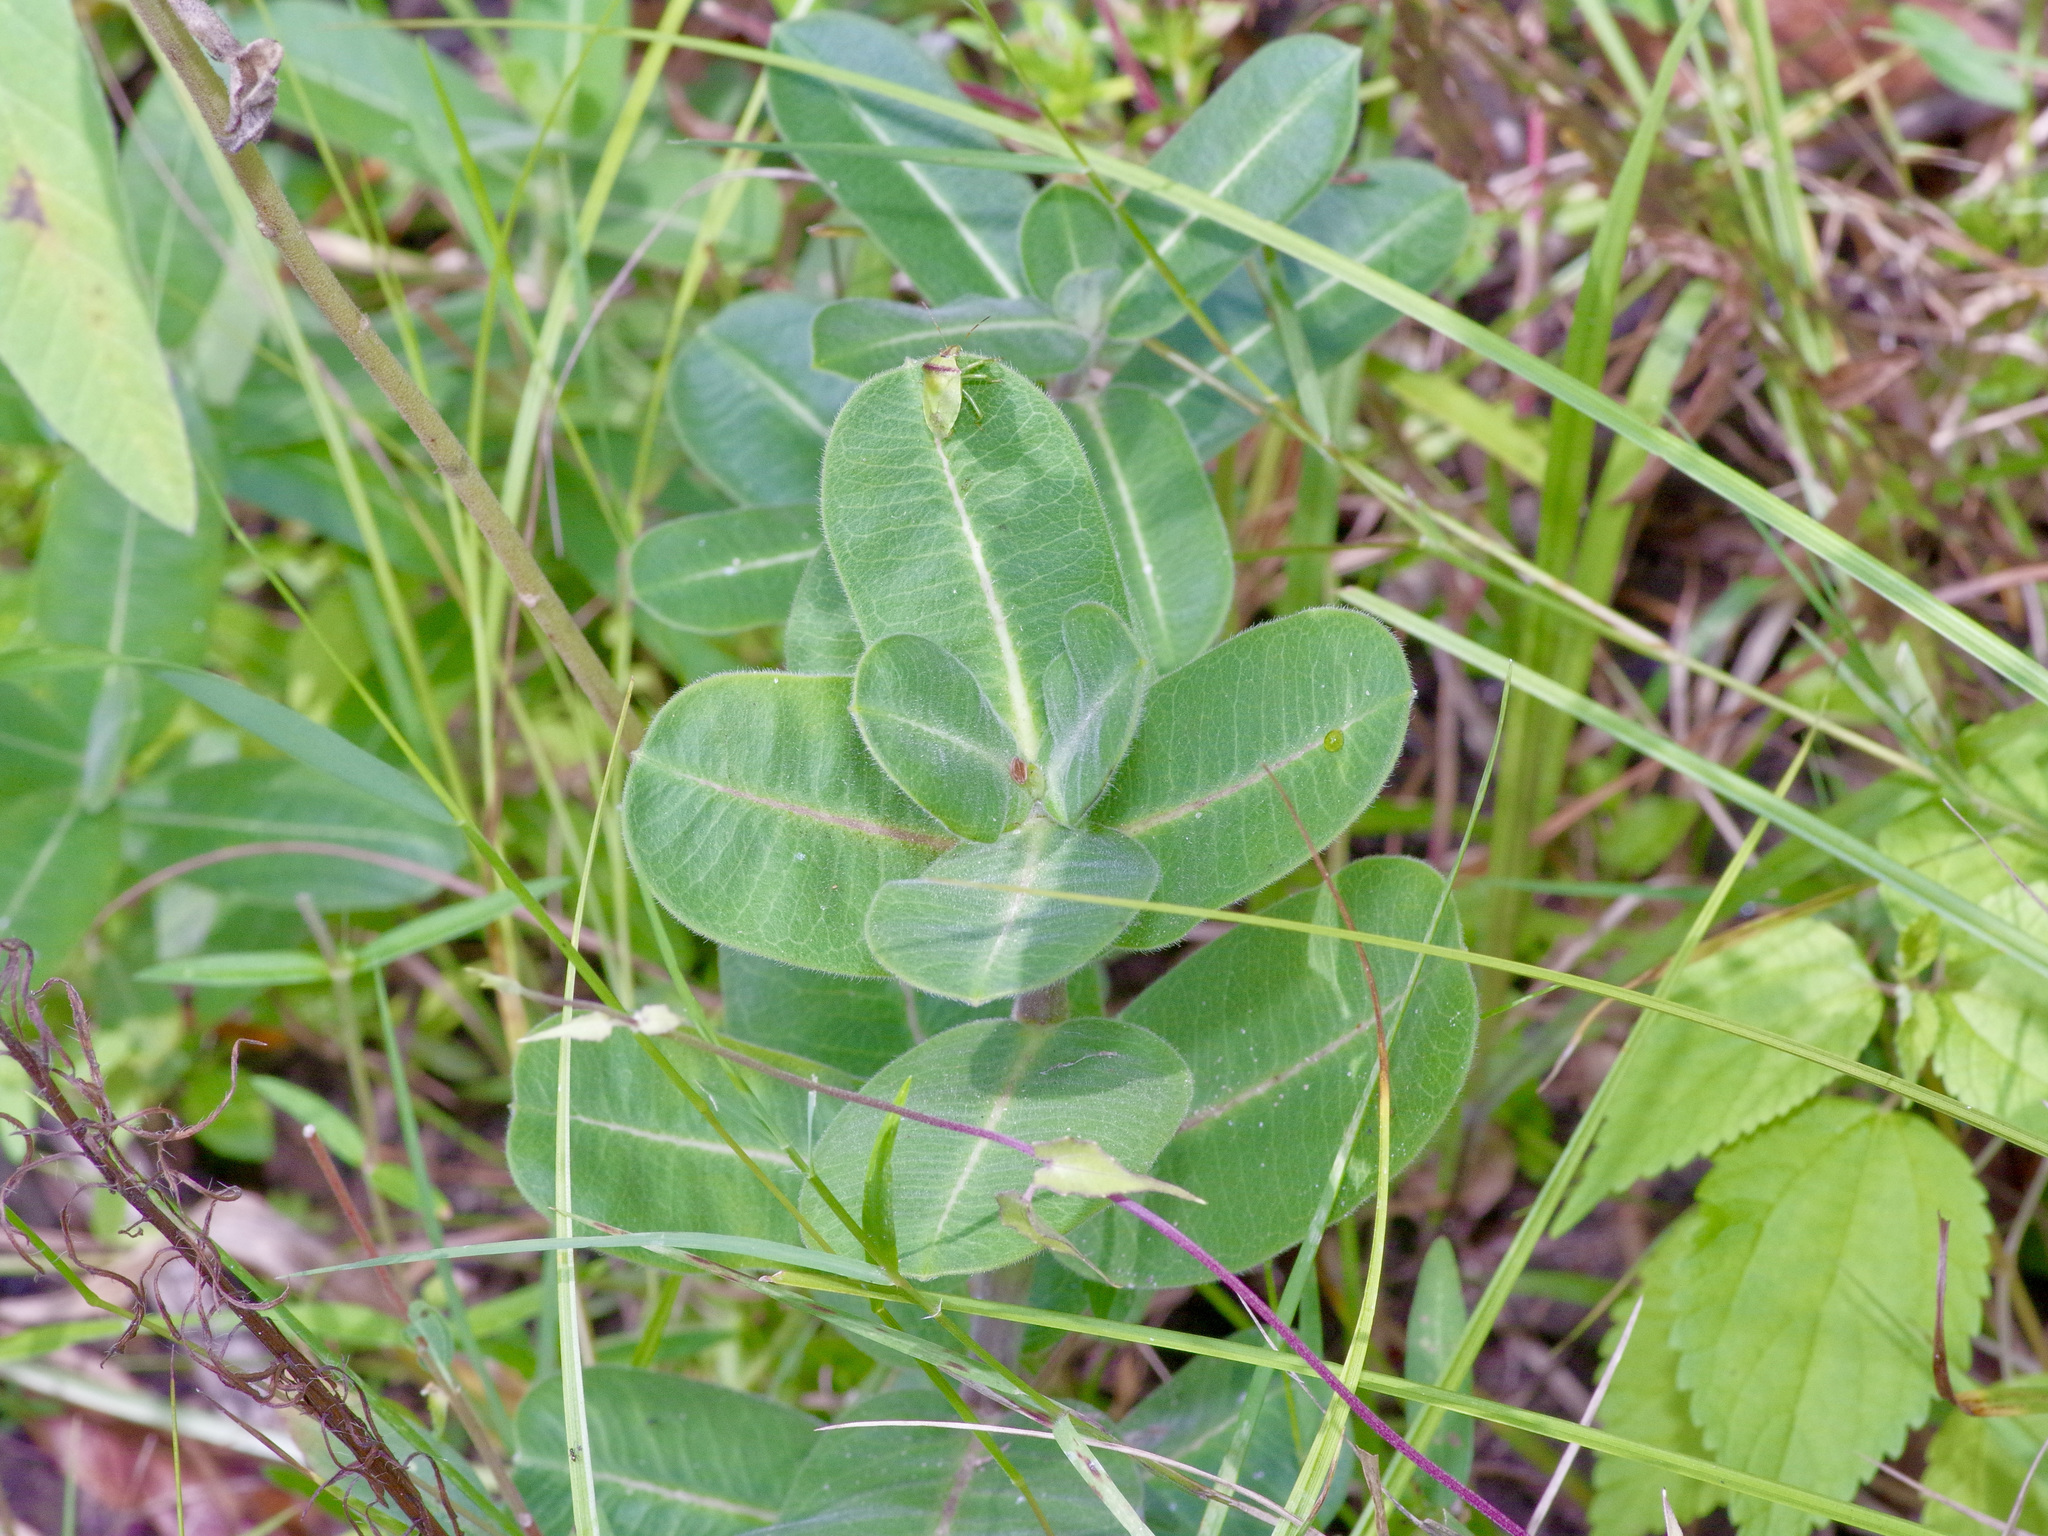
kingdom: Plantae
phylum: Tracheophyta
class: Magnoliopsida
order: Gentianales
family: Apocynaceae
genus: Asclepias
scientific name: Asclepias obovata
